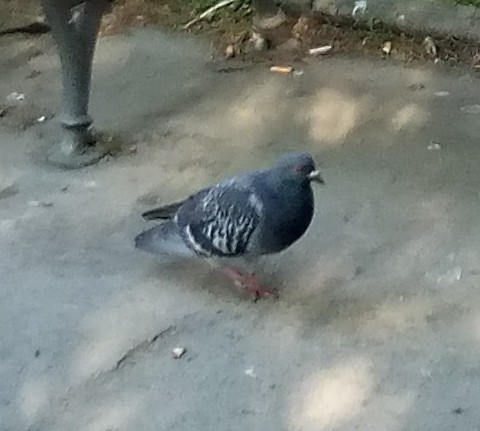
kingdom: Animalia
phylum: Chordata
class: Aves
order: Columbiformes
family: Columbidae
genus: Columba
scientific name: Columba livia
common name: Rock pigeon
